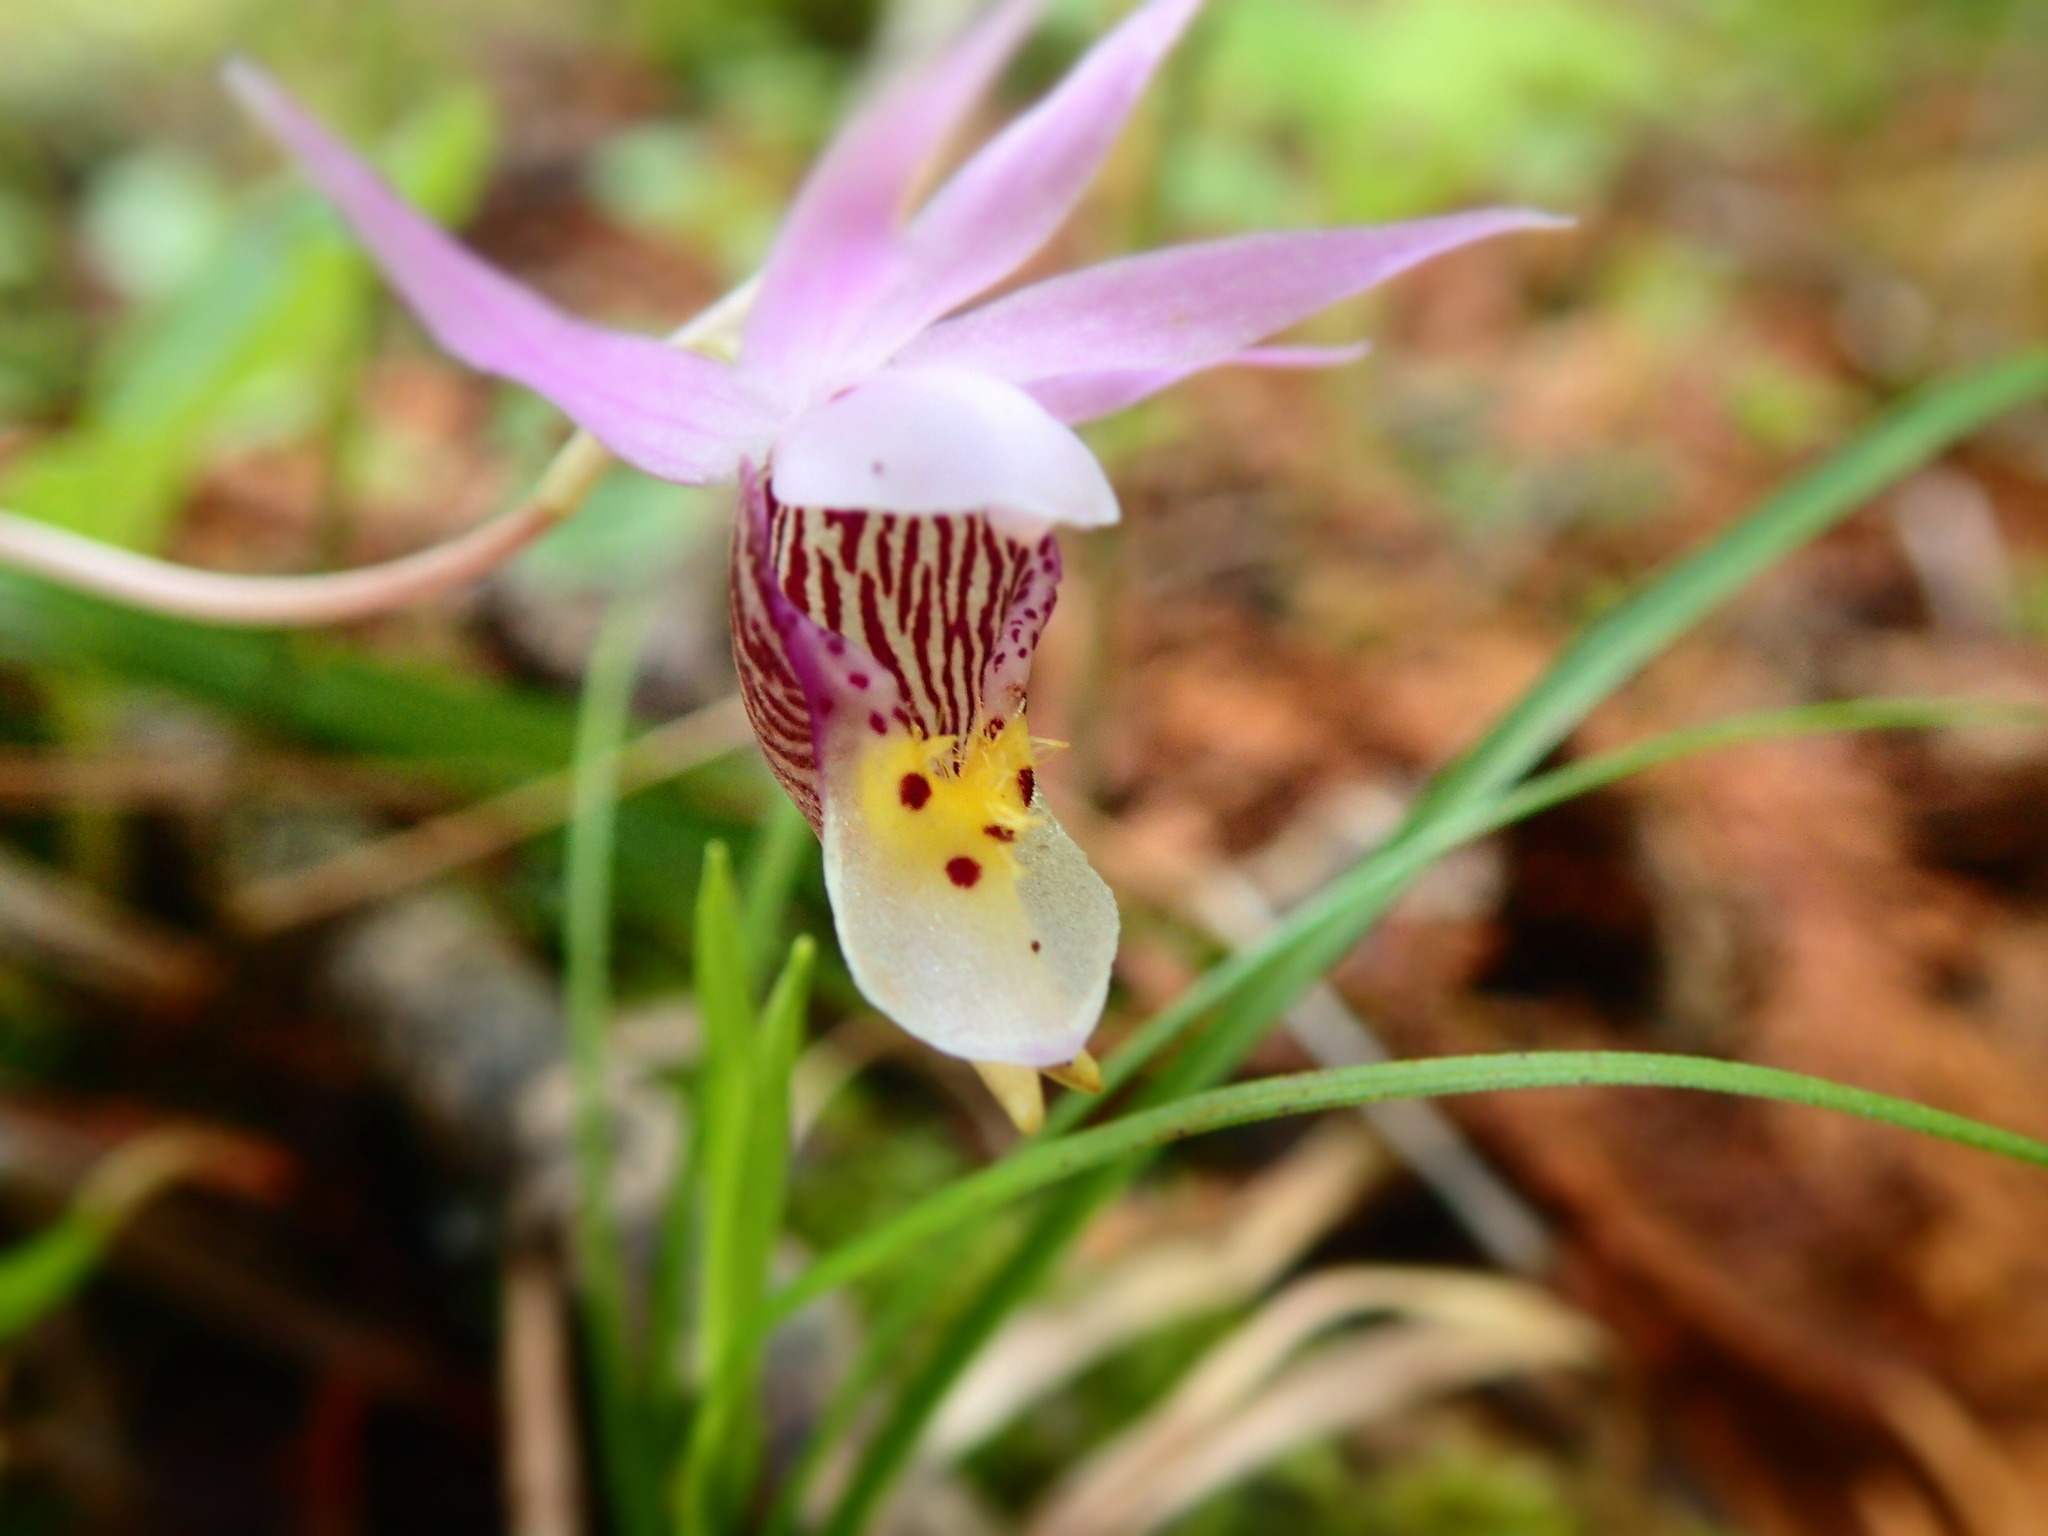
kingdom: Plantae
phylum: Tracheophyta
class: Liliopsida
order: Asparagales
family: Orchidaceae
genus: Calypso
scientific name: Calypso bulbosa
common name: Calypso
